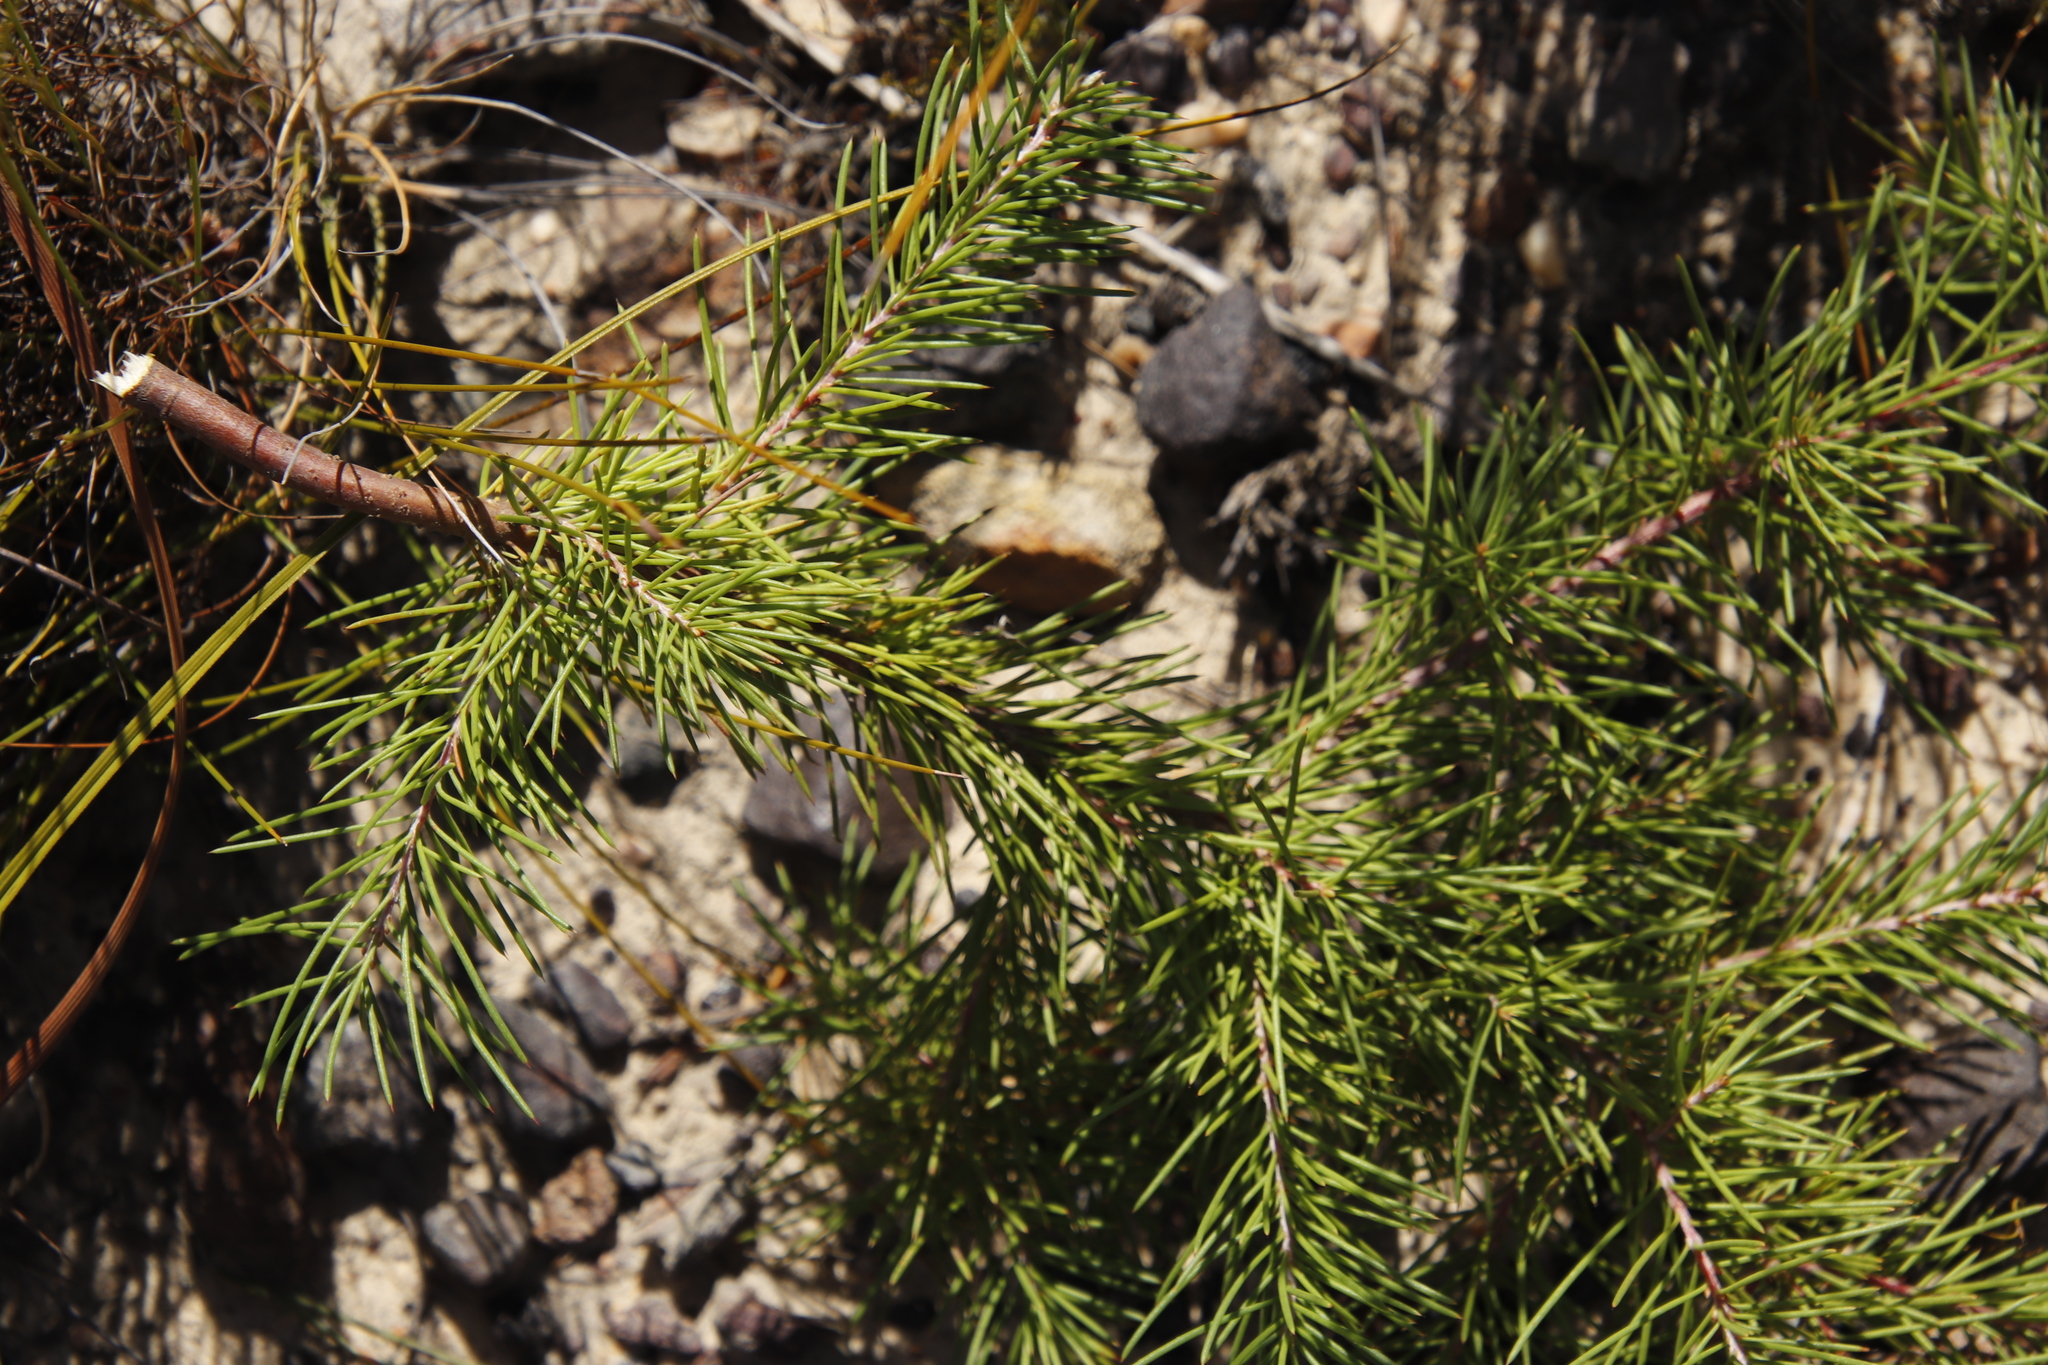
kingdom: Plantae
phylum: Tracheophyta
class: Magnoliopsida
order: Proteales
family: Proteaceae
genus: Hakea
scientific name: Hakea sericea
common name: Needle bush
